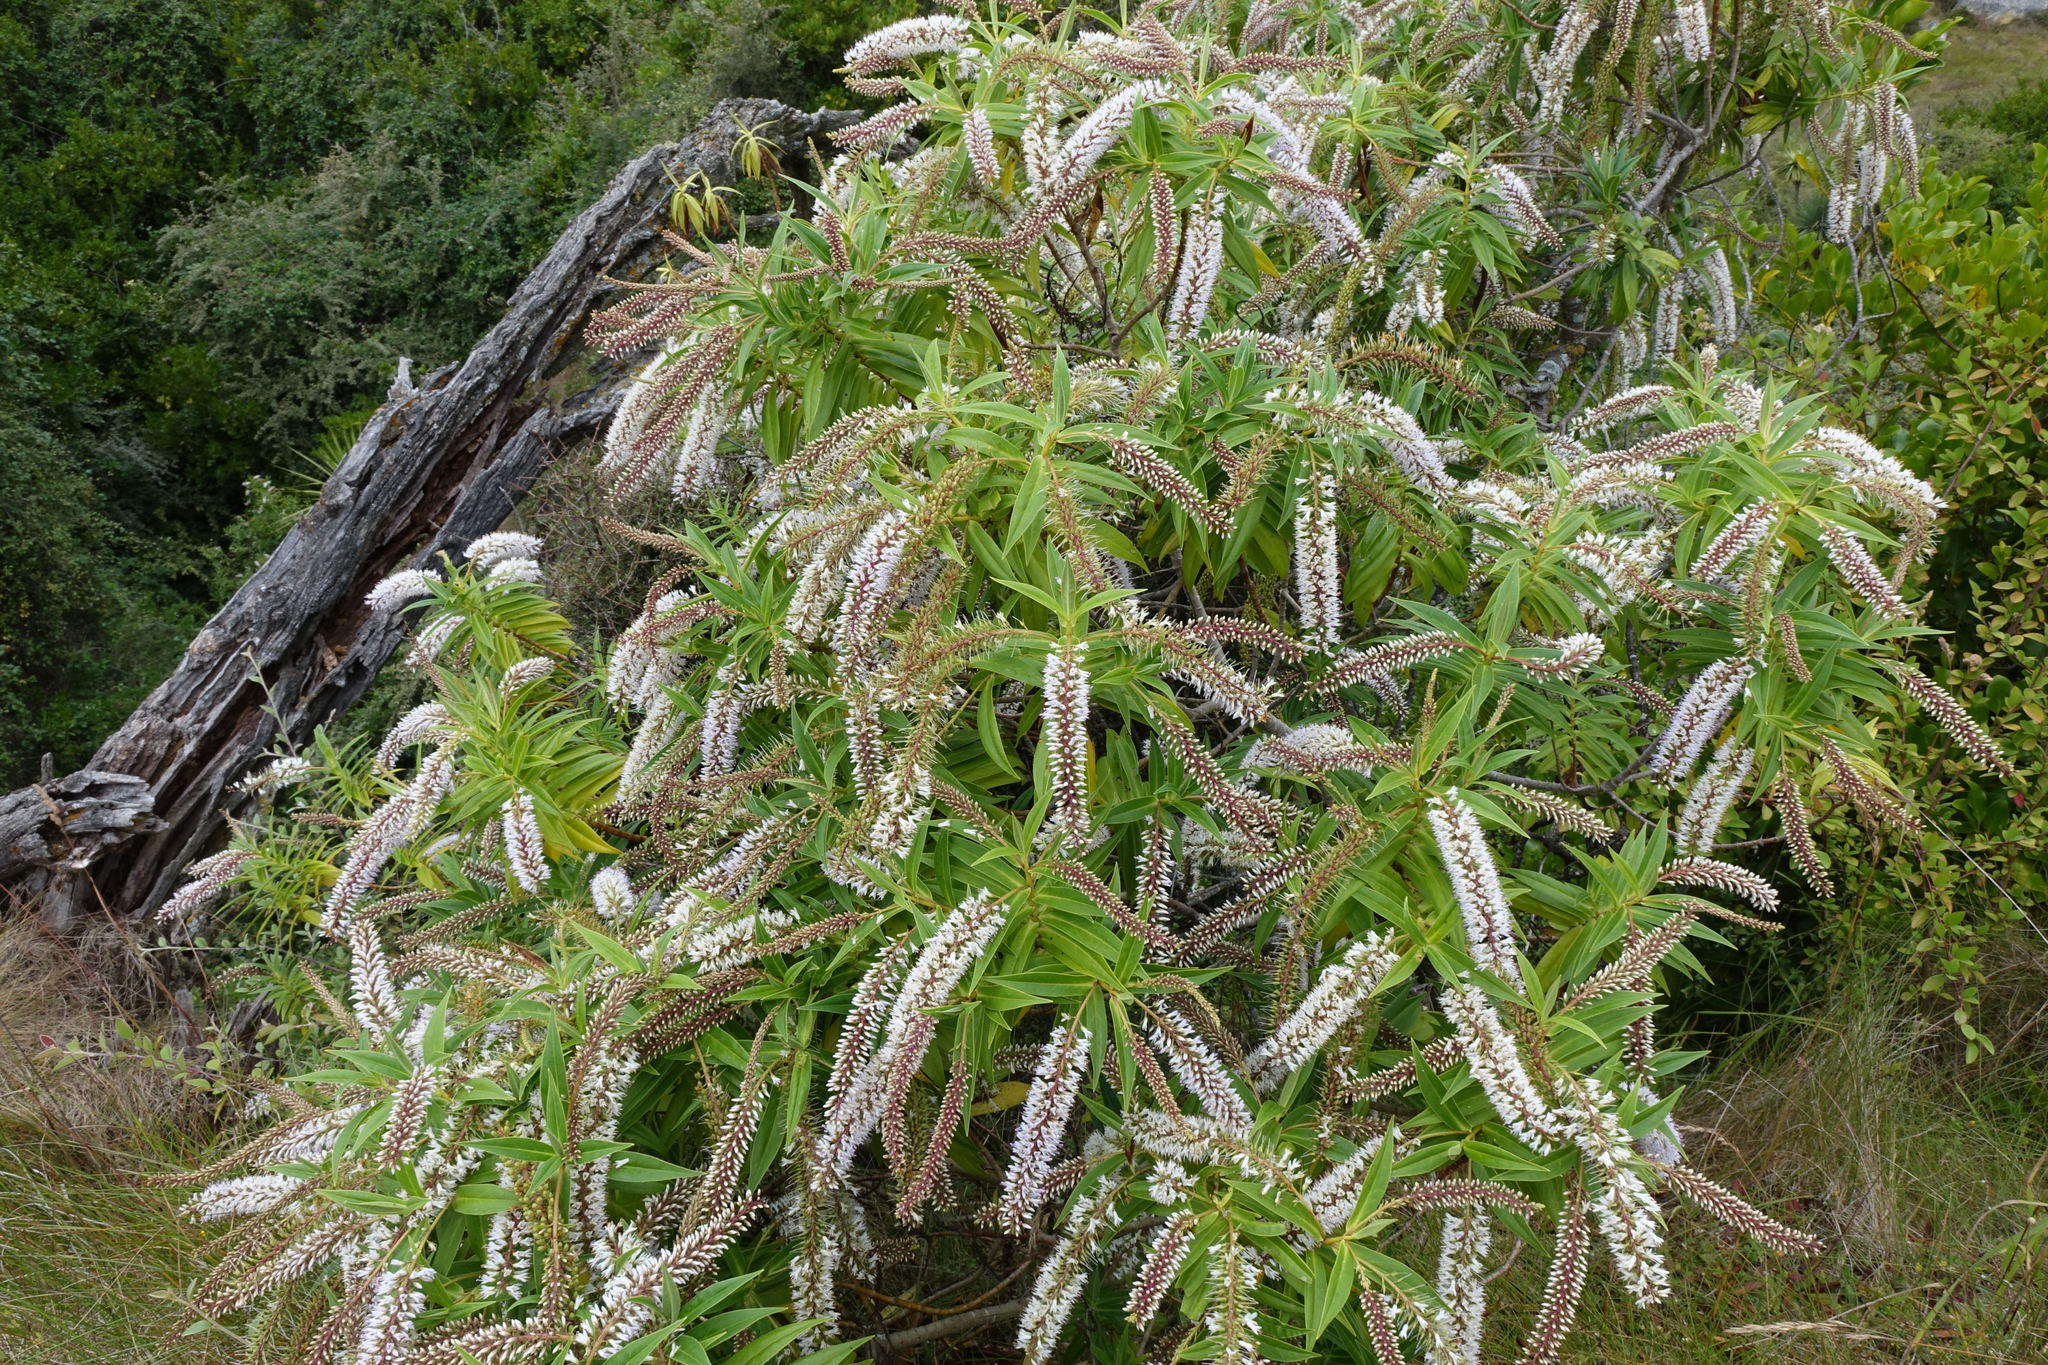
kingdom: Plantae
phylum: Tracheophyta
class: Magnoliopsida
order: Lamiales
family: Plantaginaceae
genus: Veronica
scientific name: Veronica salicifolia
